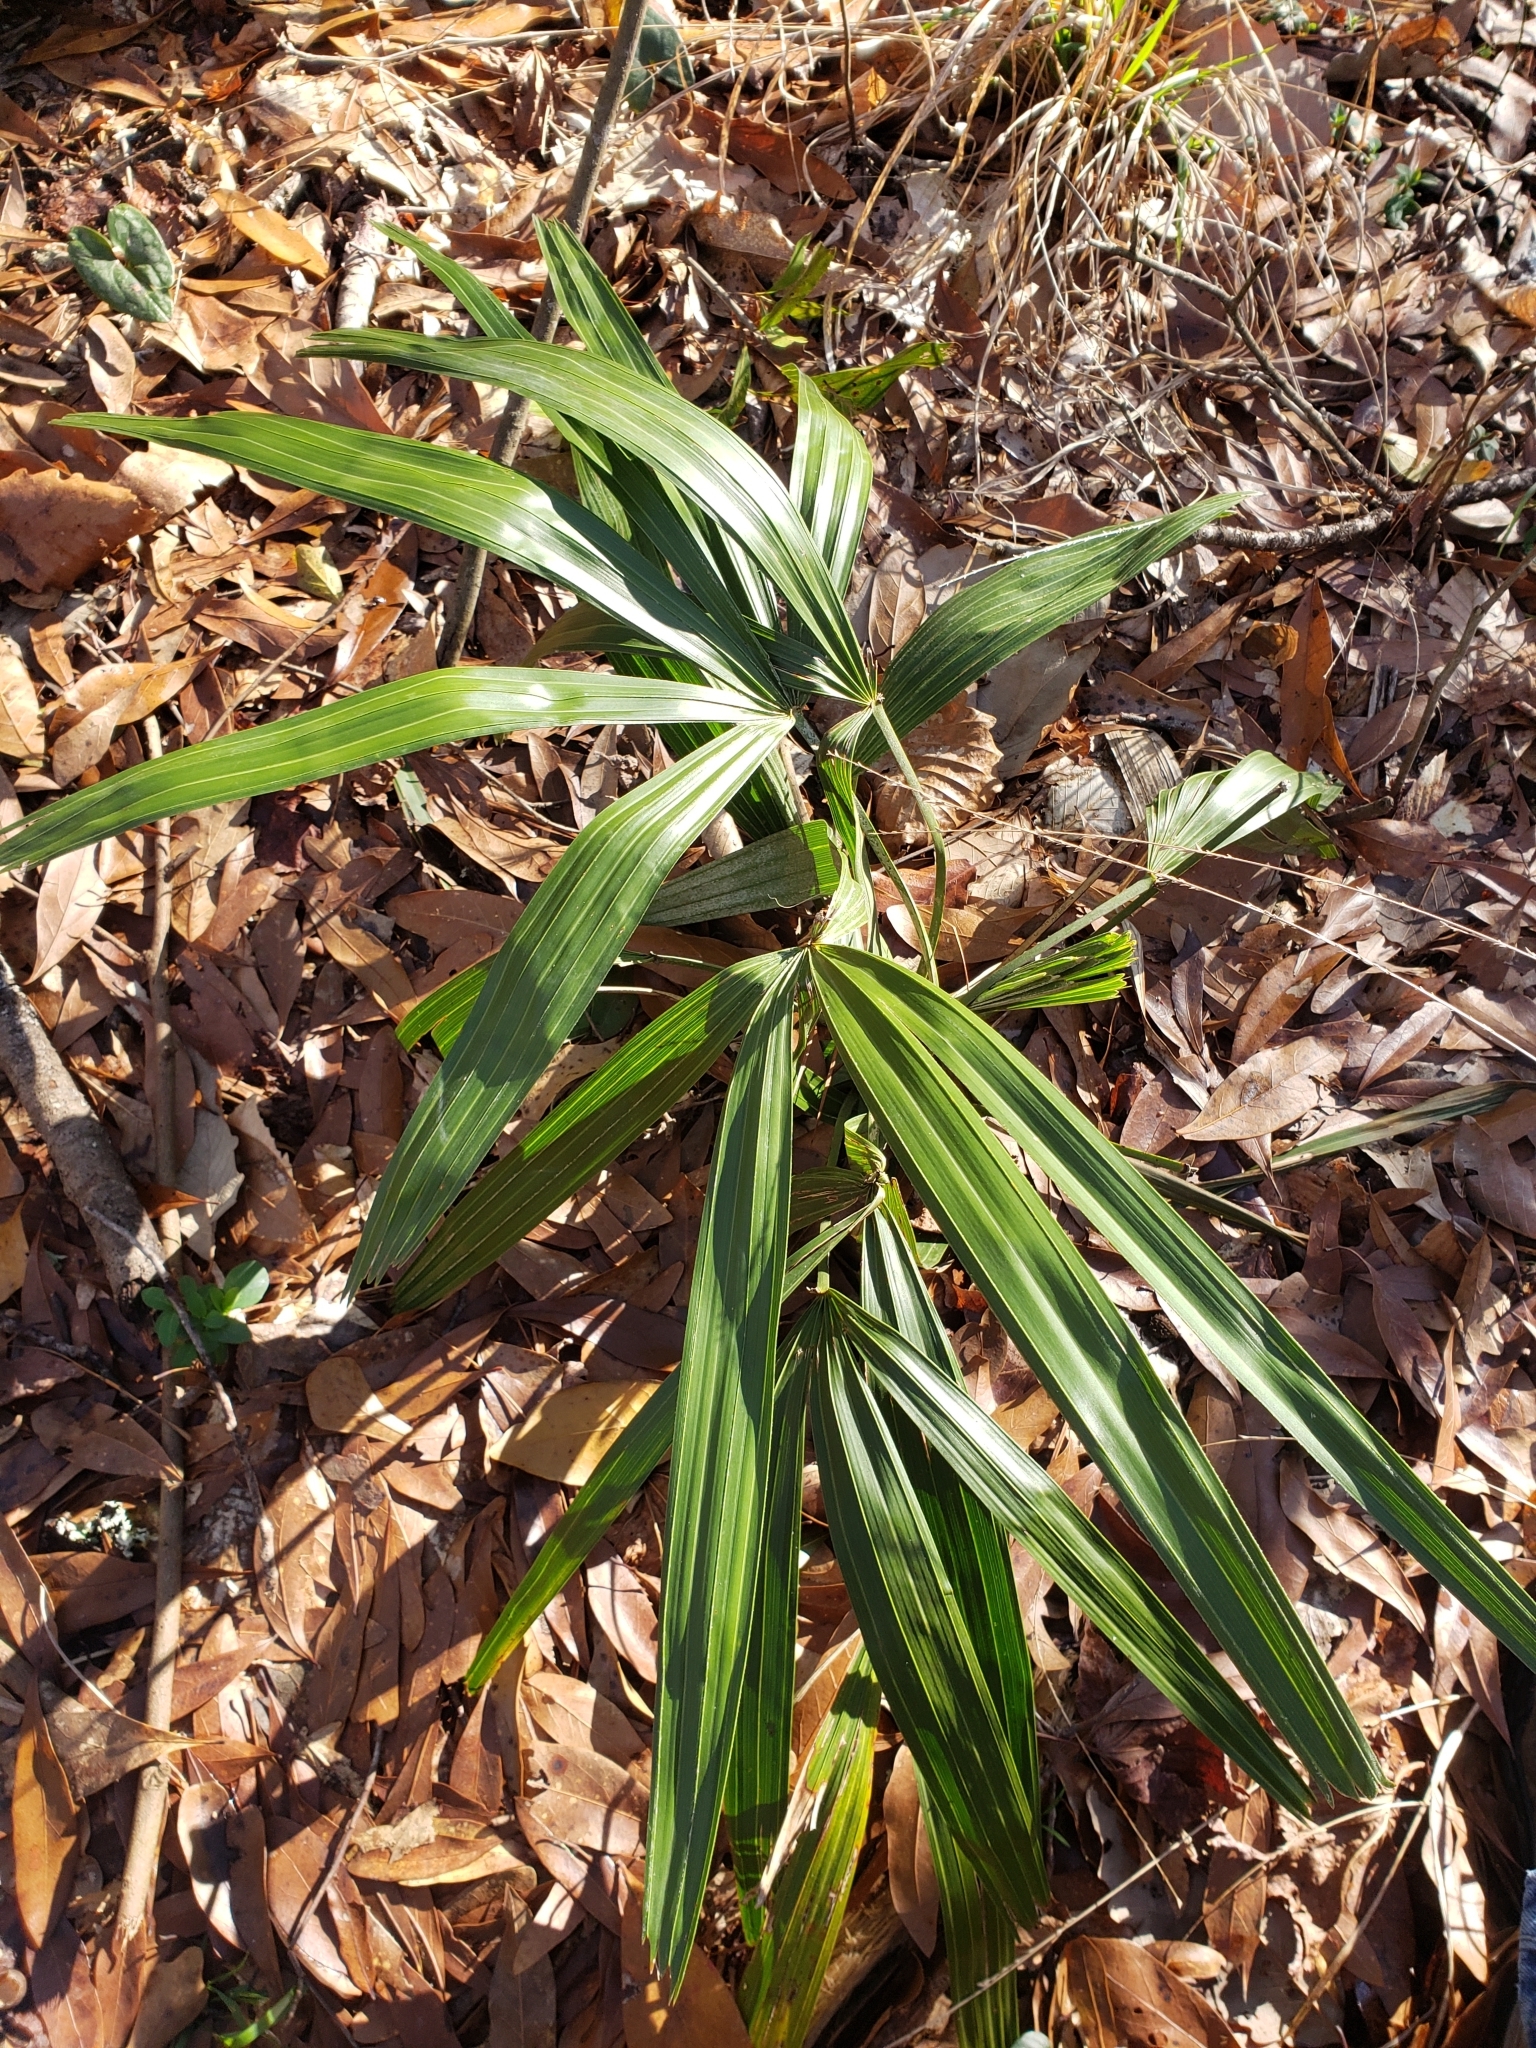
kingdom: Plantae
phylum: Tracheophyta
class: Liliopsida
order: Arecales
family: Arecaceae
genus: Rhapidophyllum
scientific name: Rhapidophyllum hystrix
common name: Porcupine palm
